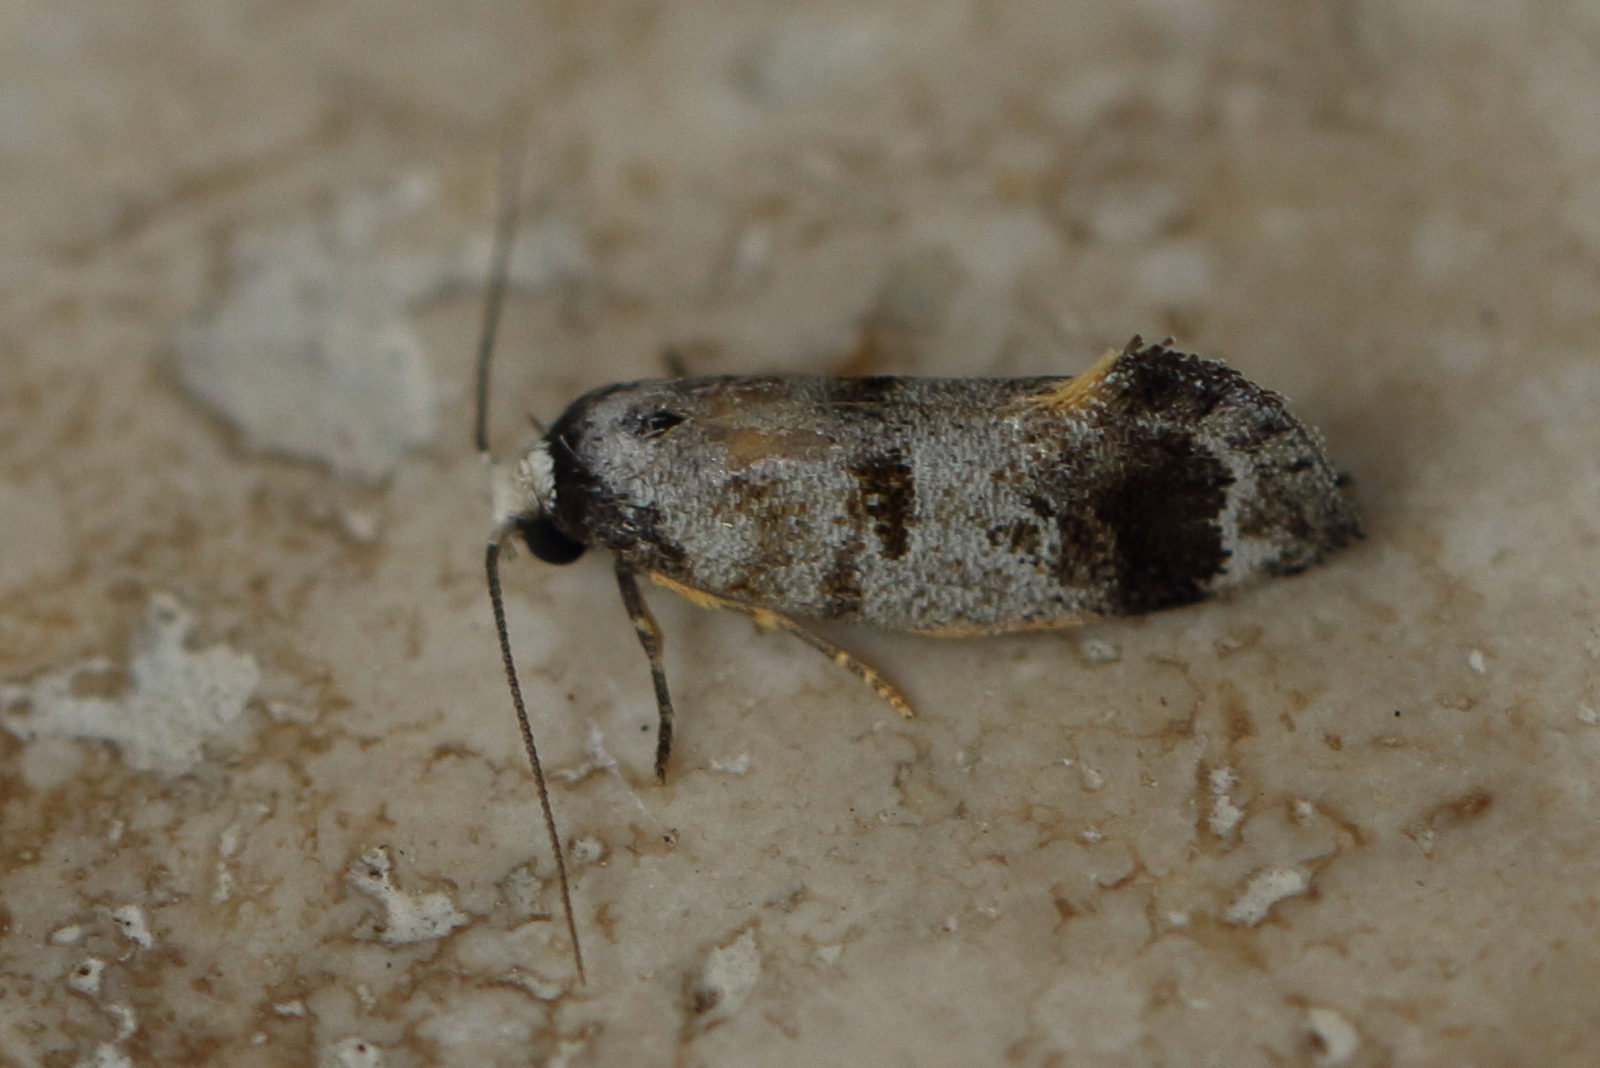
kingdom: Animalia
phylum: Arthropoda
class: Insecta
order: Lepidoptera
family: Oecophoridae
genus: Bathrosterra
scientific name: Bathrosterra calotropha
